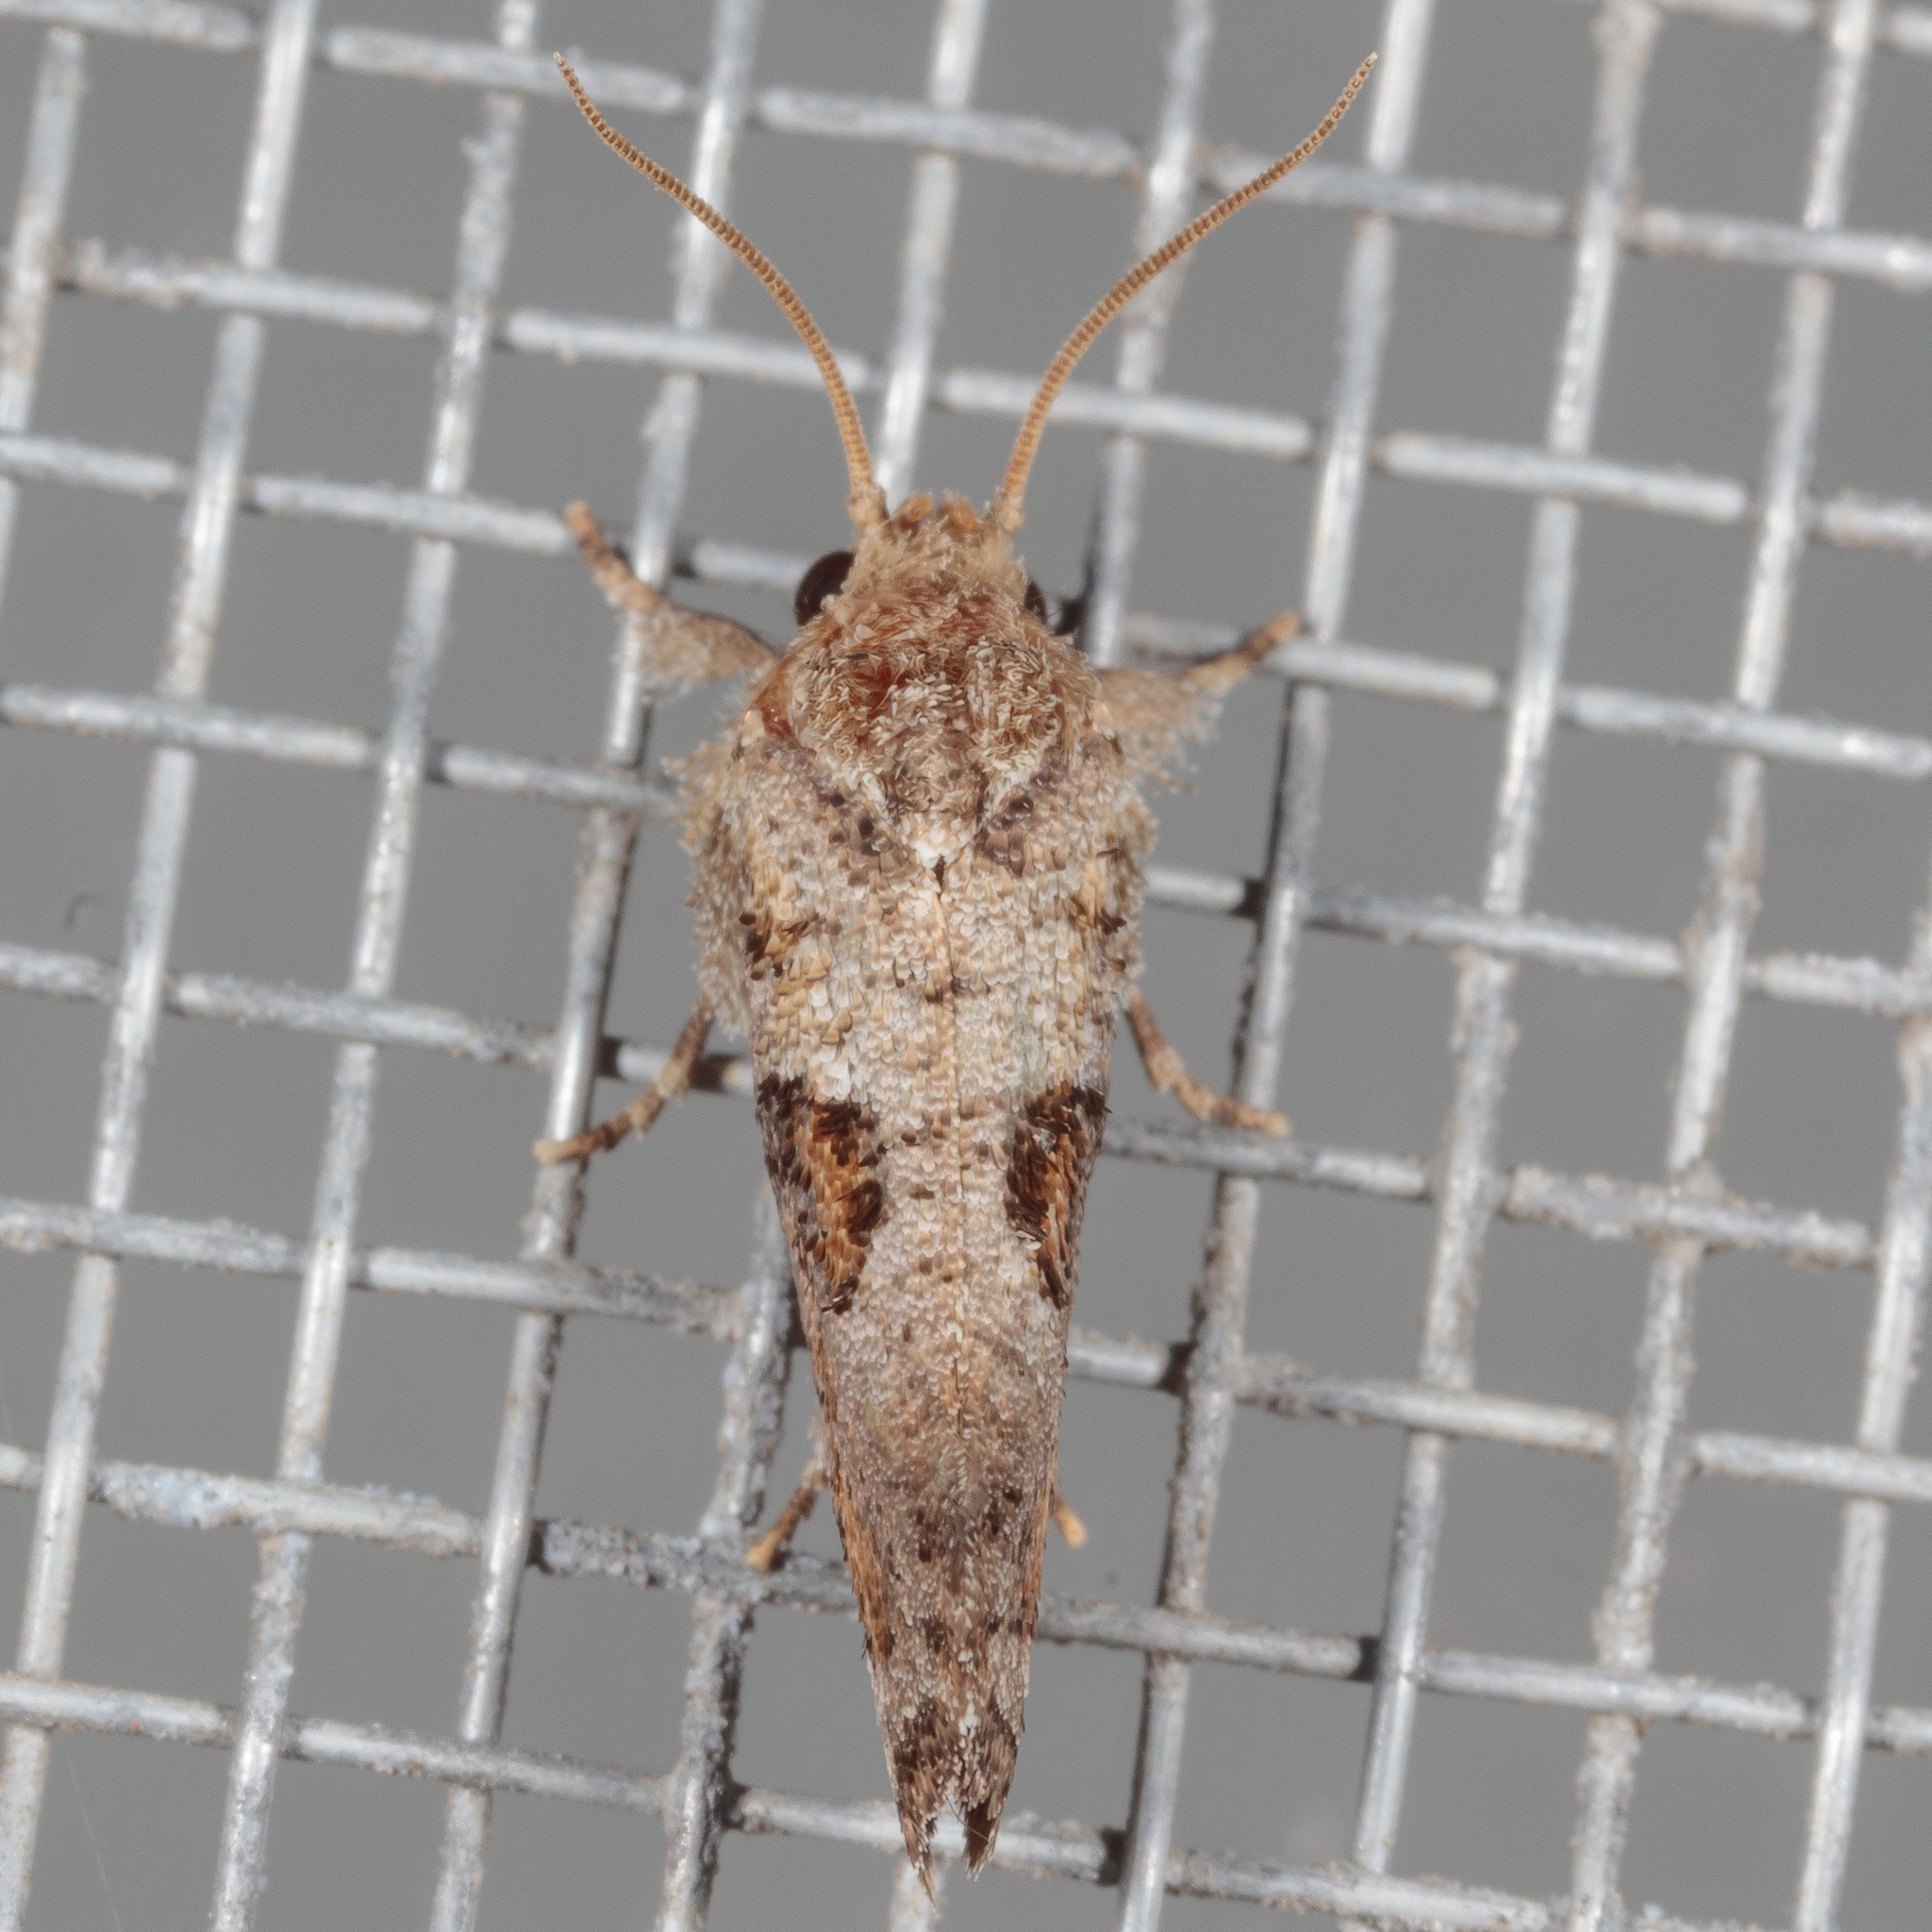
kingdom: Animalia
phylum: Arthropoda
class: Insecta
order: Lepidoptera
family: Tineidae
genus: Acrolophus
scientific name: Acrolophus piger
